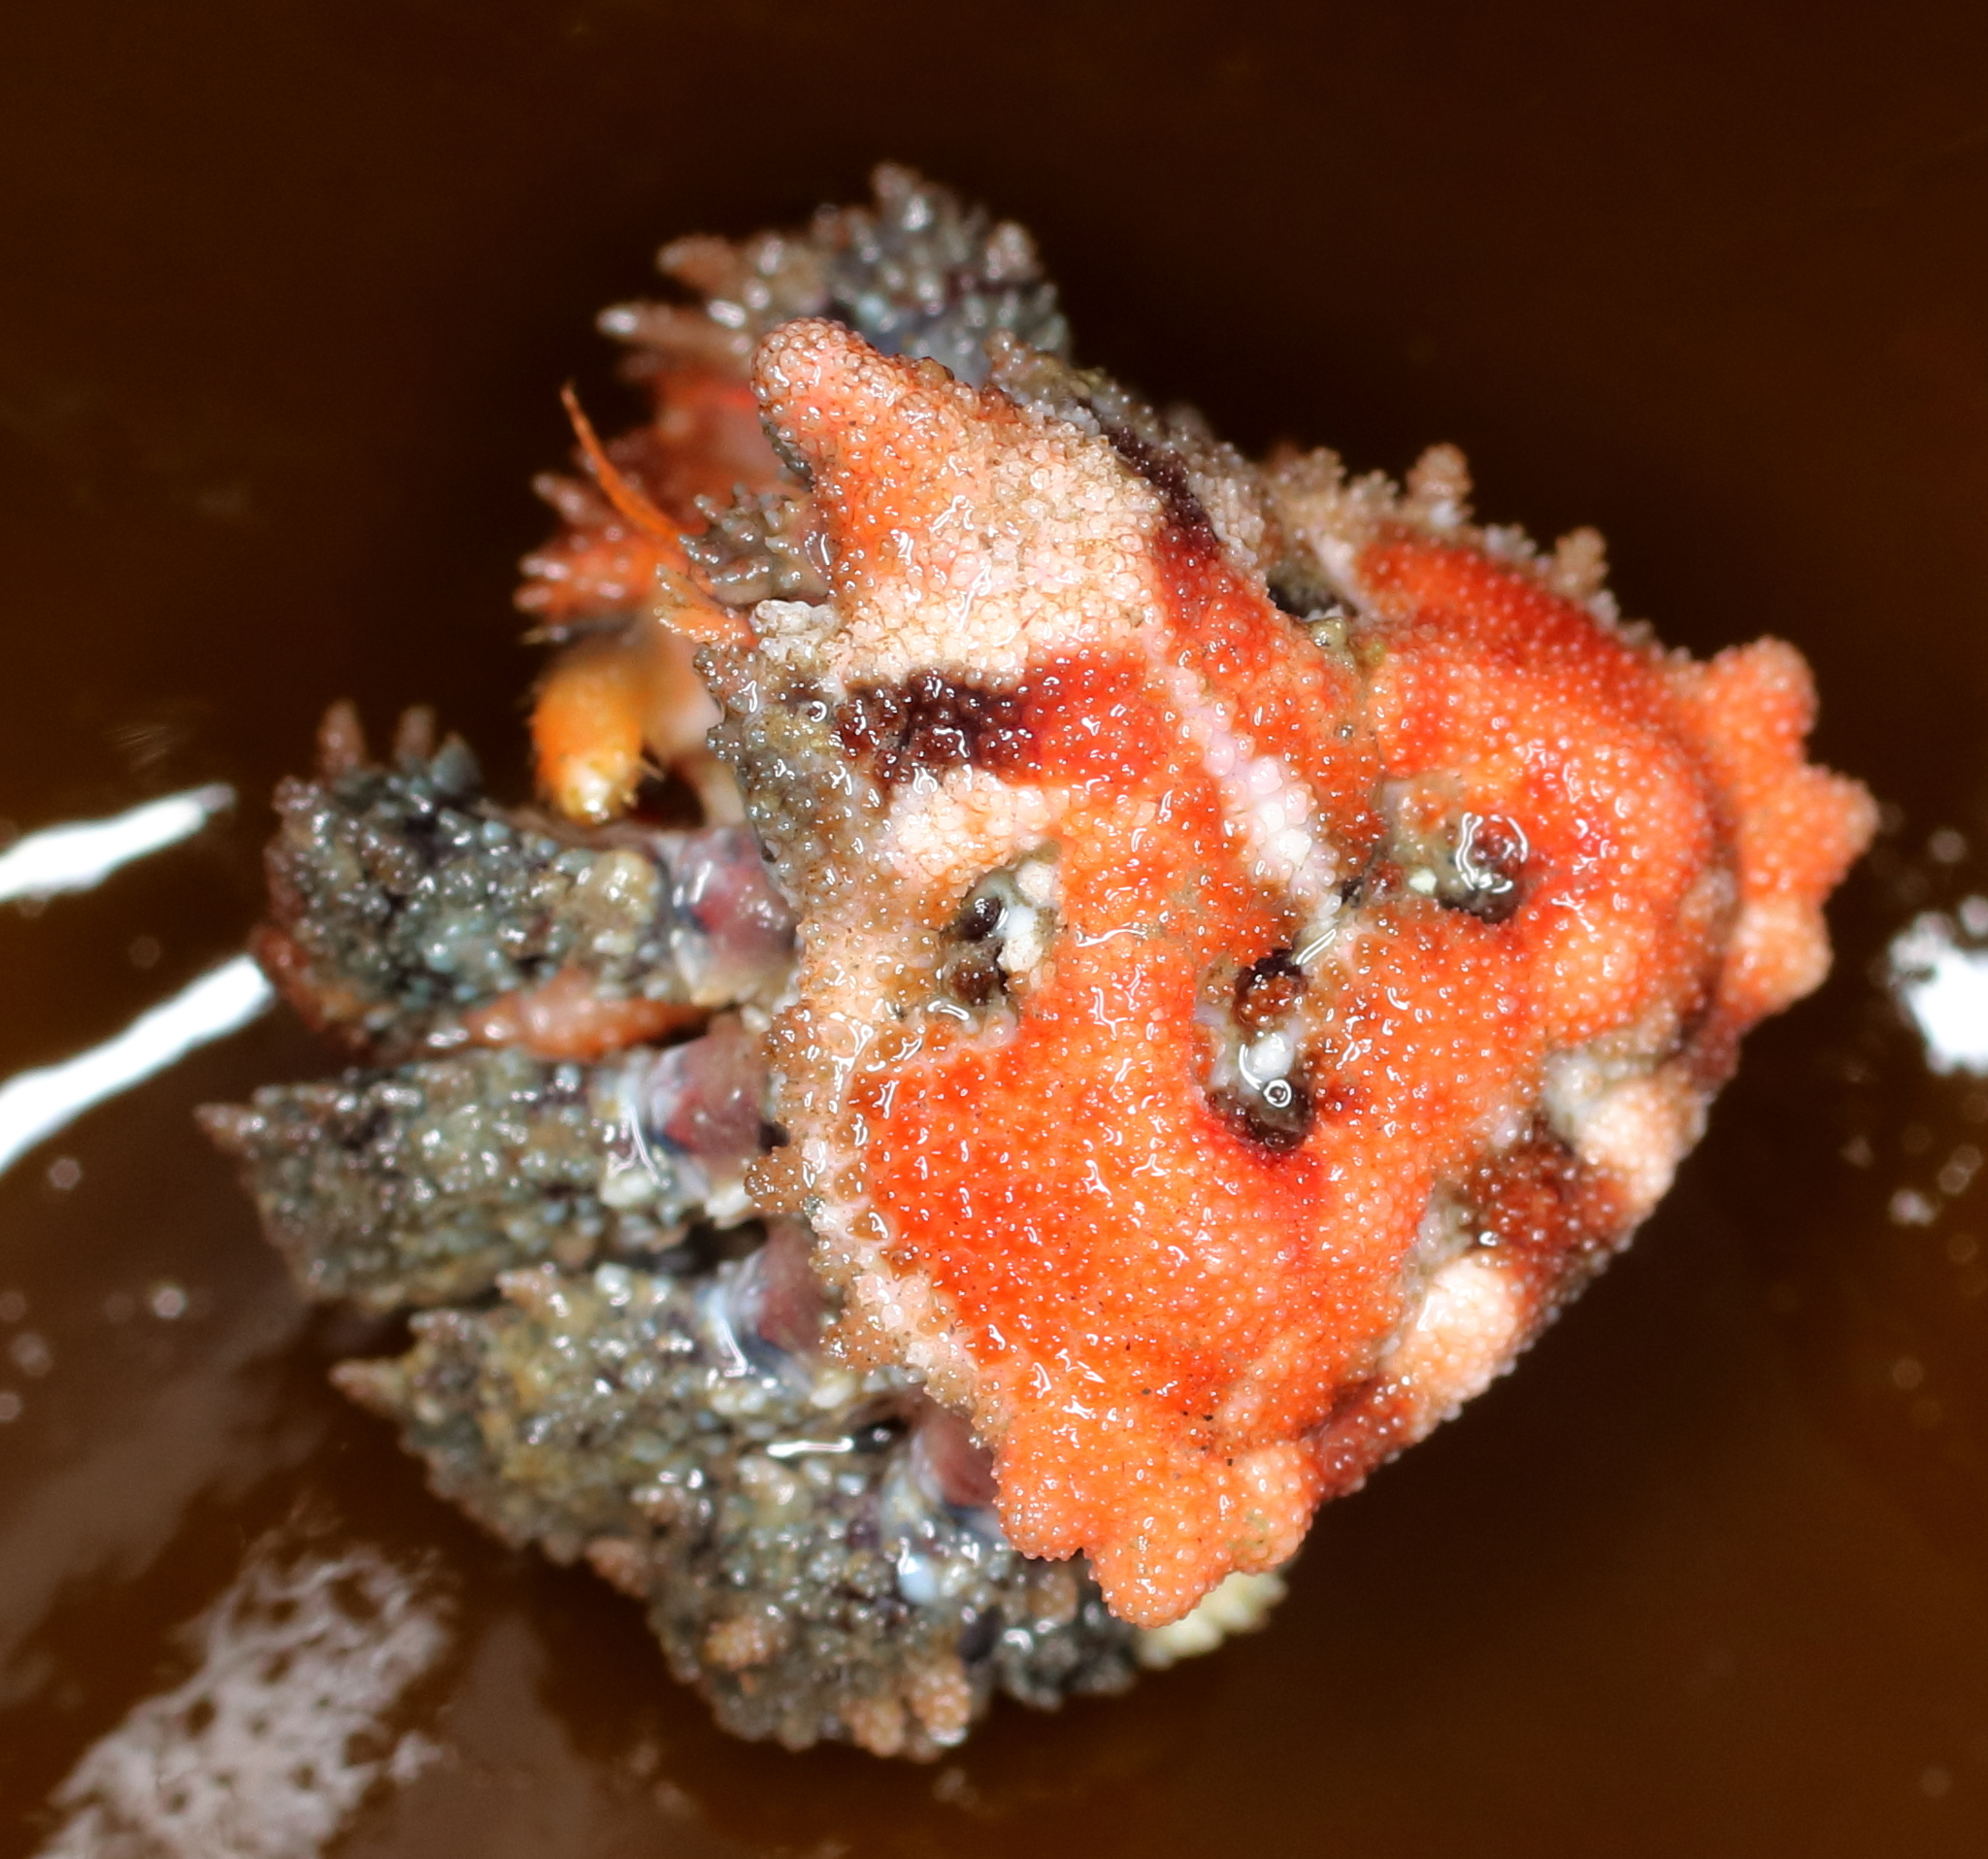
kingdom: Animalia
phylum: Arthropoda
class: Malacostraca
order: Decapoda
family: Lithodidae
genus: Phyllolithodes
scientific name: Phyllolithodes papillosus
